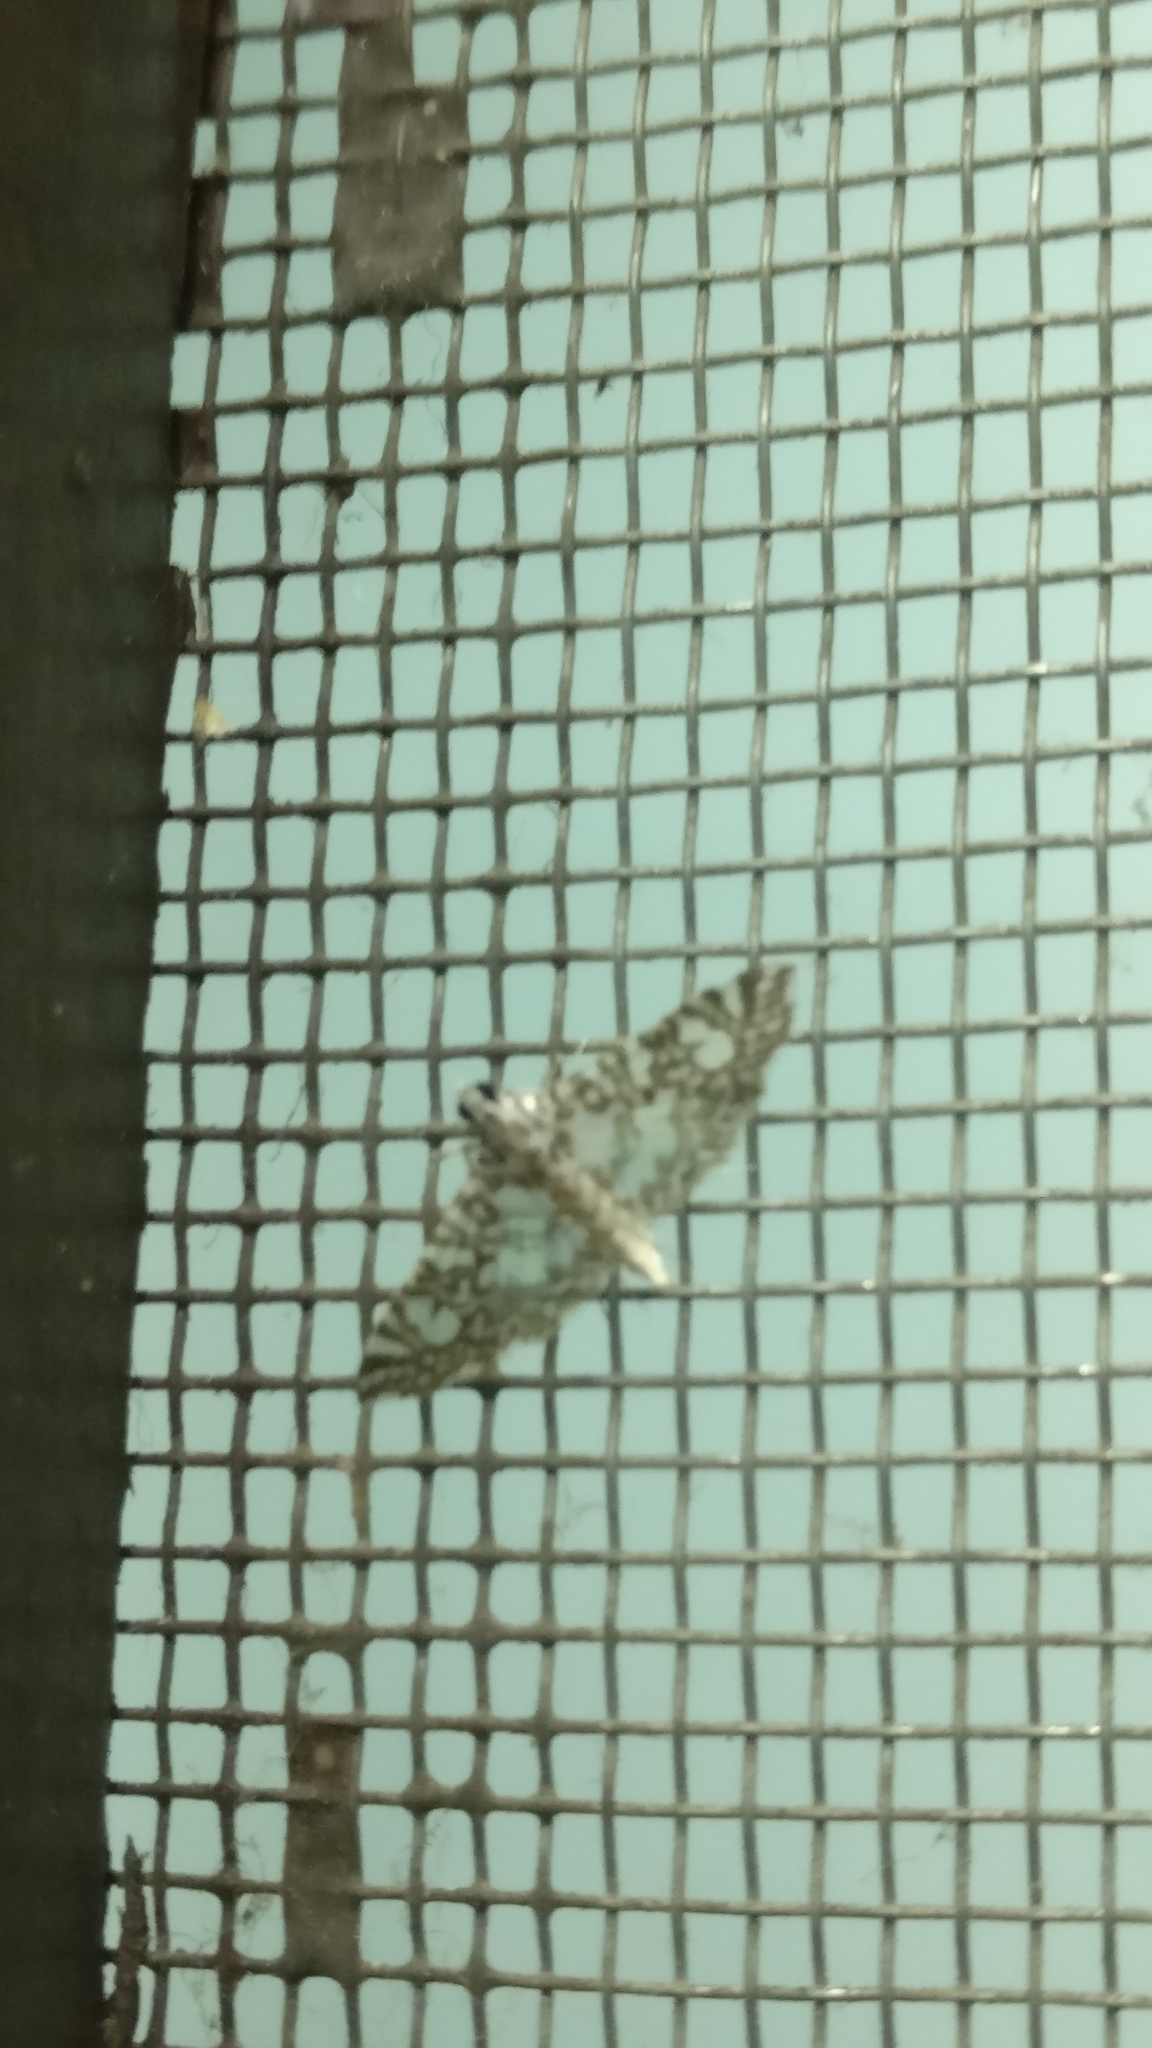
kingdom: Animalia
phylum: Arthropoda
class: Insecta
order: Lepidoptera
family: Crambidae
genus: Glyphodes
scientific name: Glyphodes onychinalis
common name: Swan plant moth
